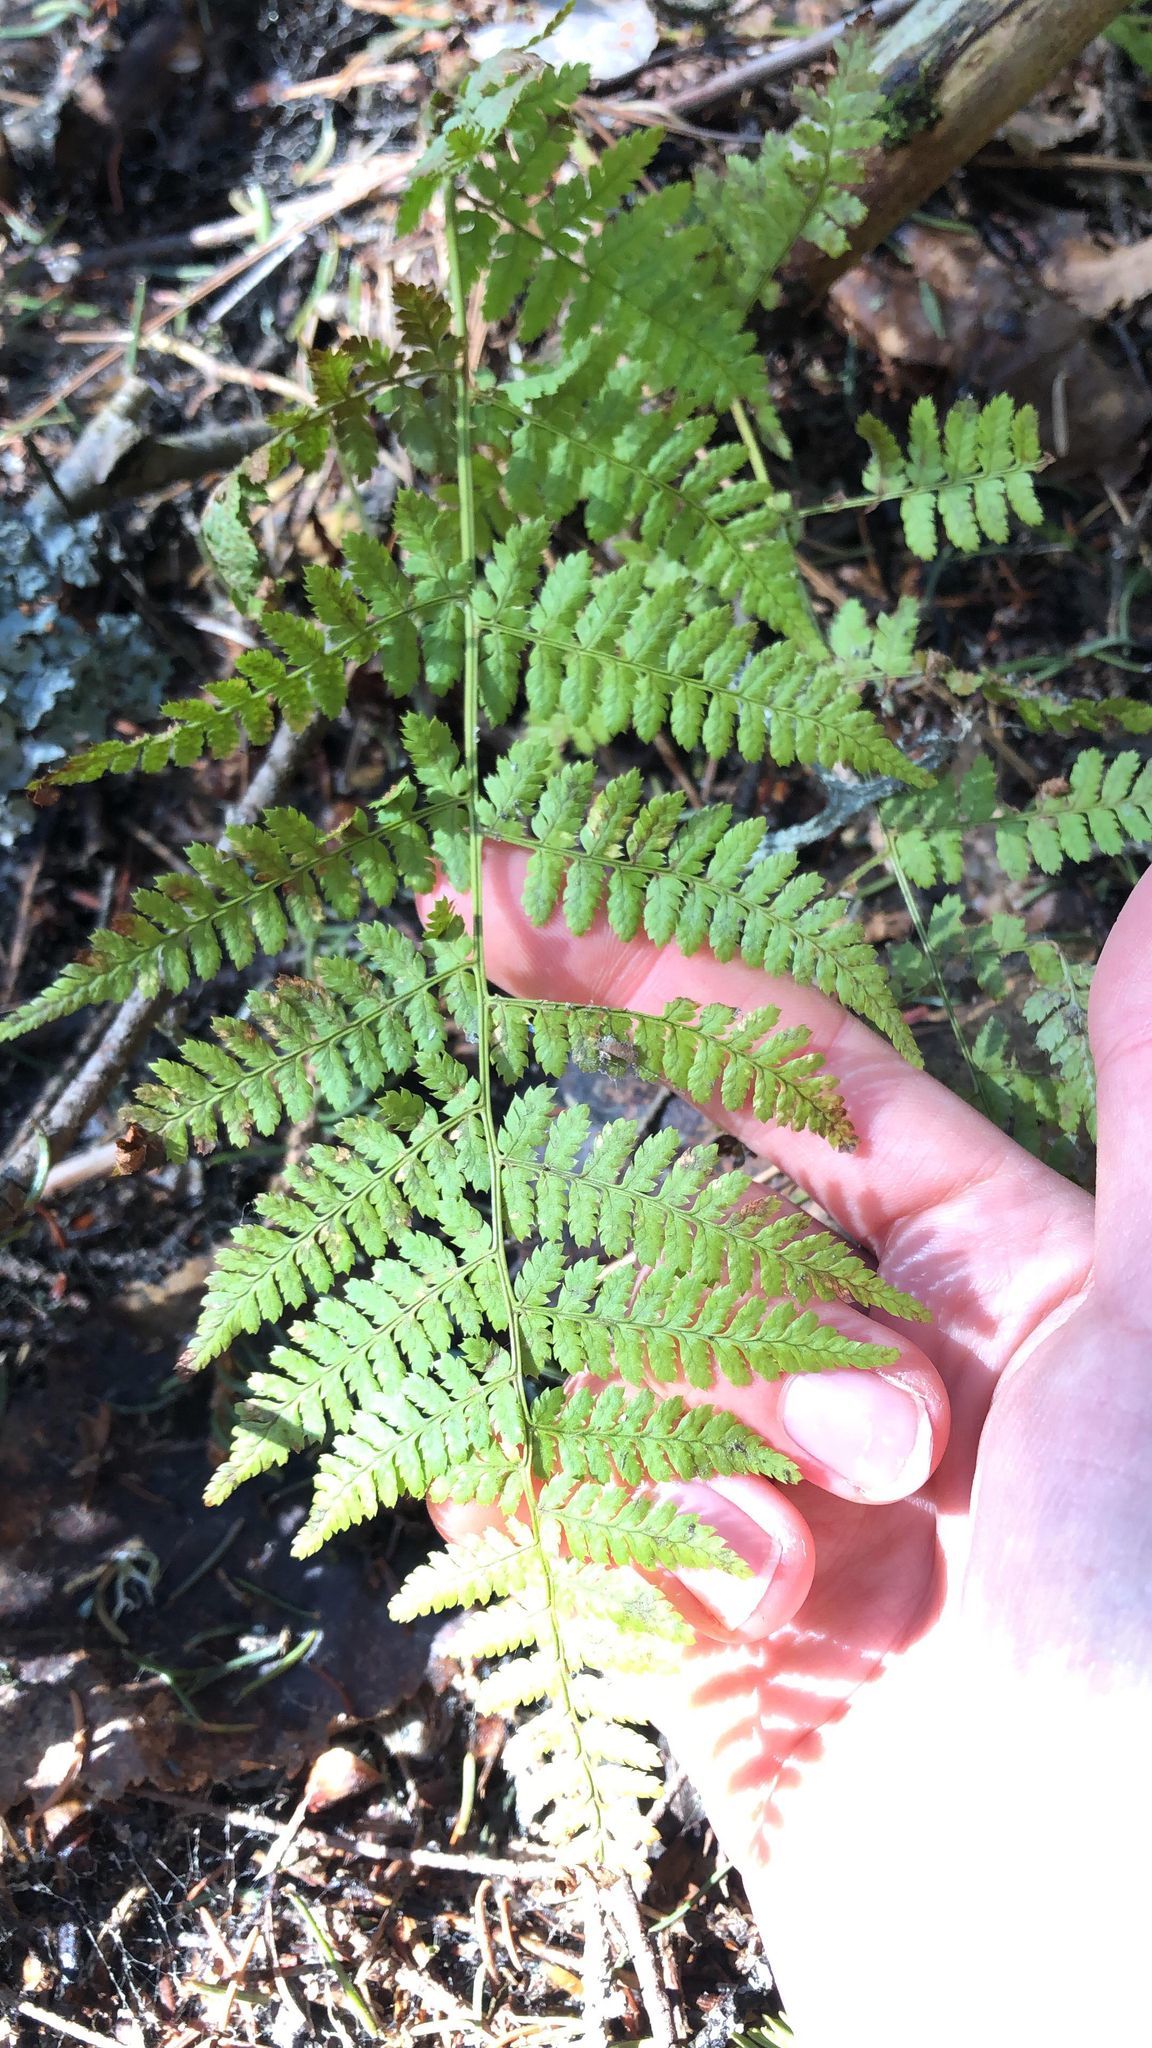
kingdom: Plantae
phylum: Tracheophyta
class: Polypodiopsida
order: Polypodiales
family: Dryopteridaceae
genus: Dryopteris
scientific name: Dryopteris intermedia
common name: Evergreen wood fern
